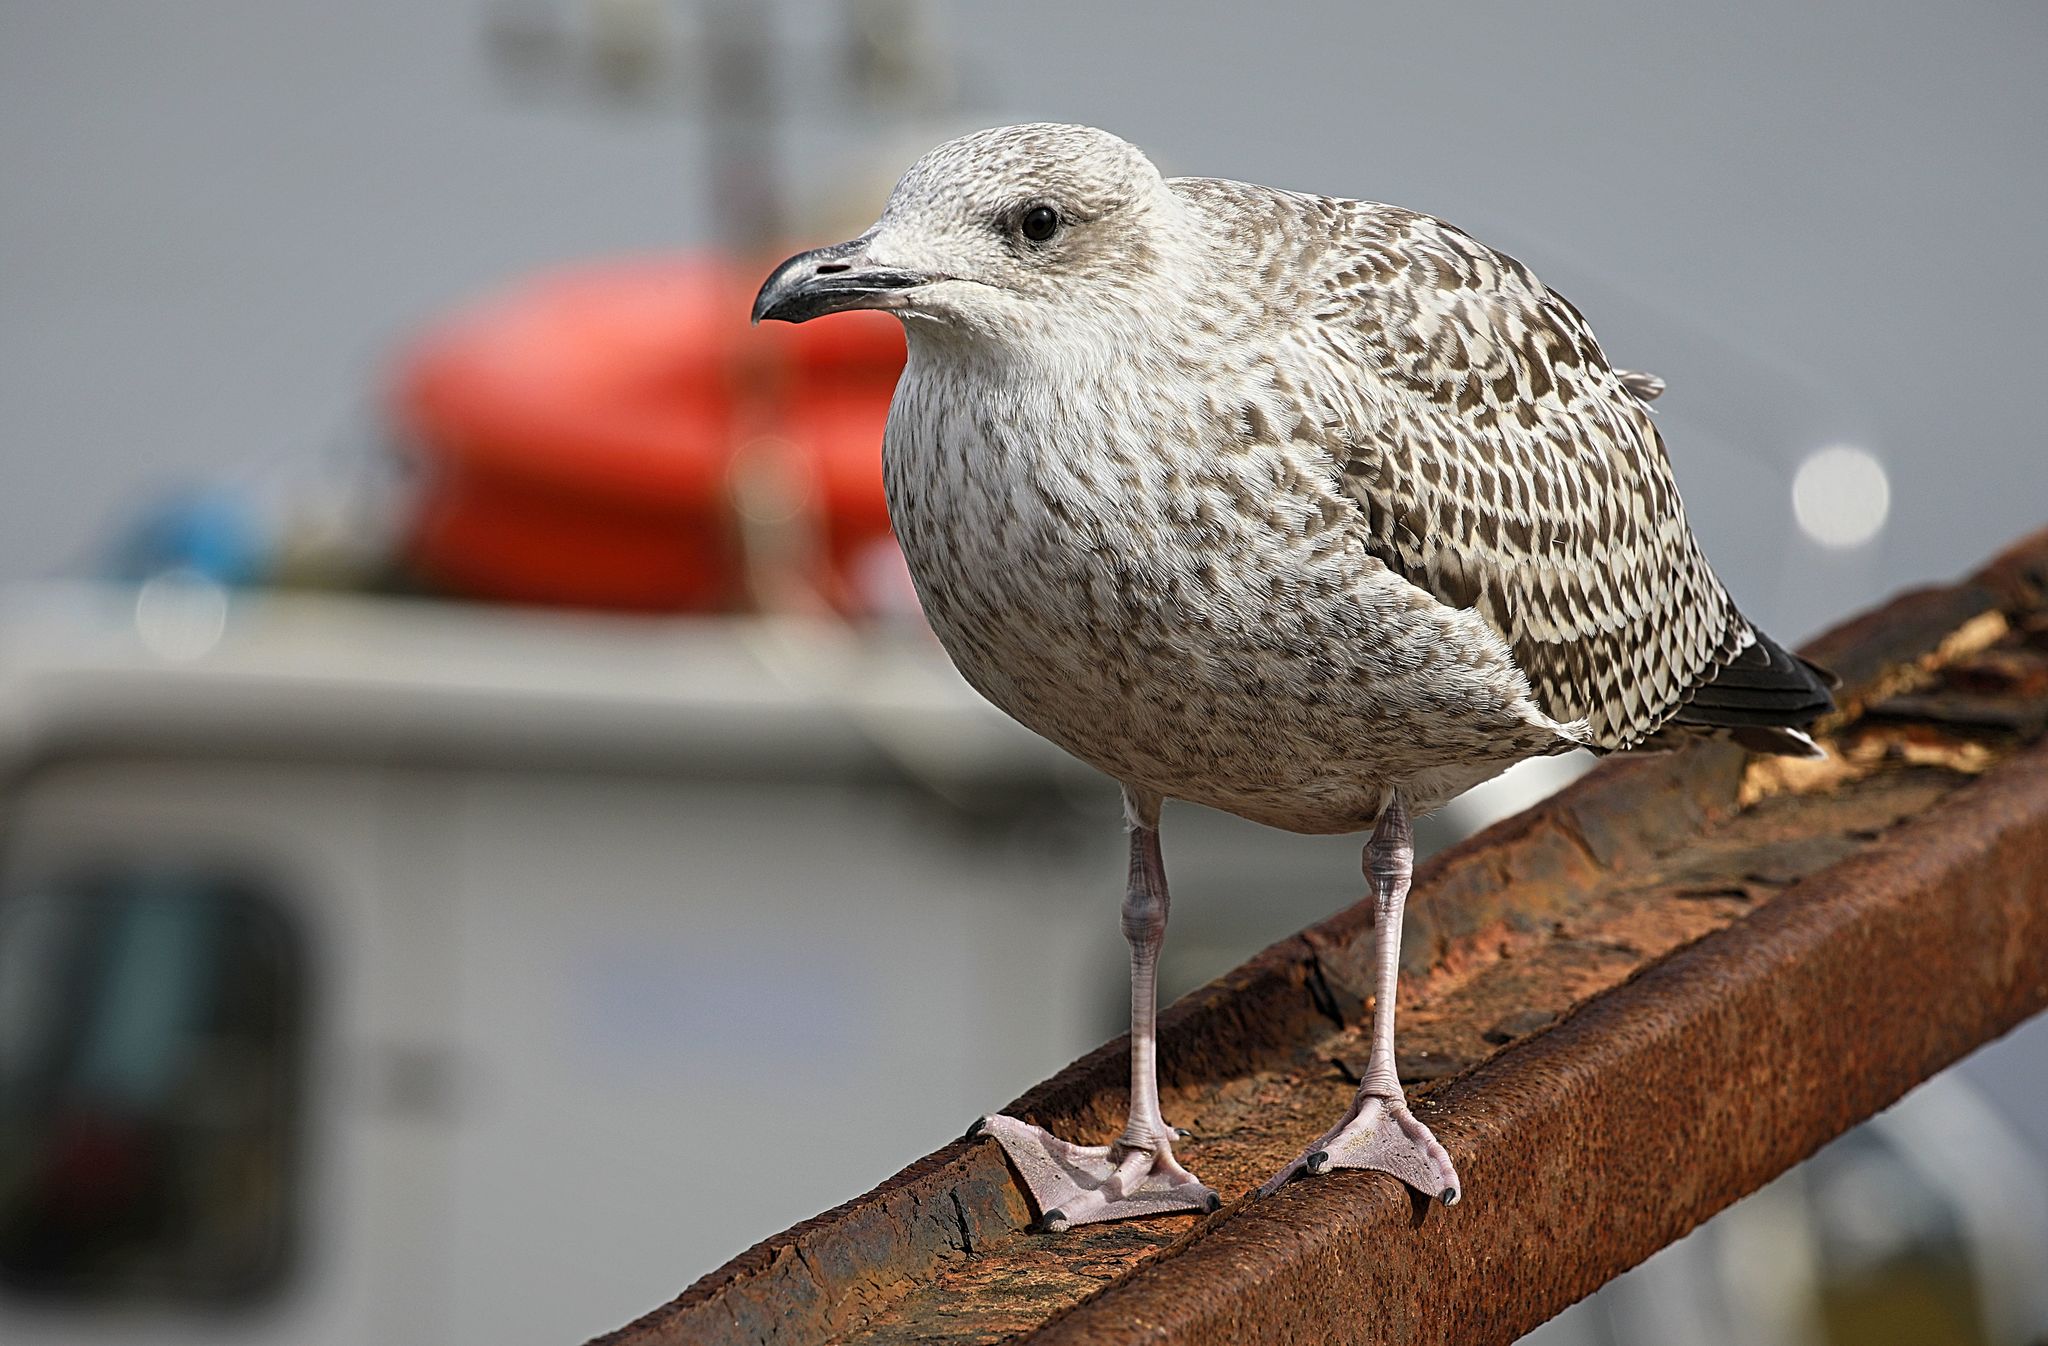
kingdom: Animalia
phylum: Chordata
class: Aves
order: Charadriiformes
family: Laridae
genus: Larus
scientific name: Larus argentatus
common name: Herring gull
